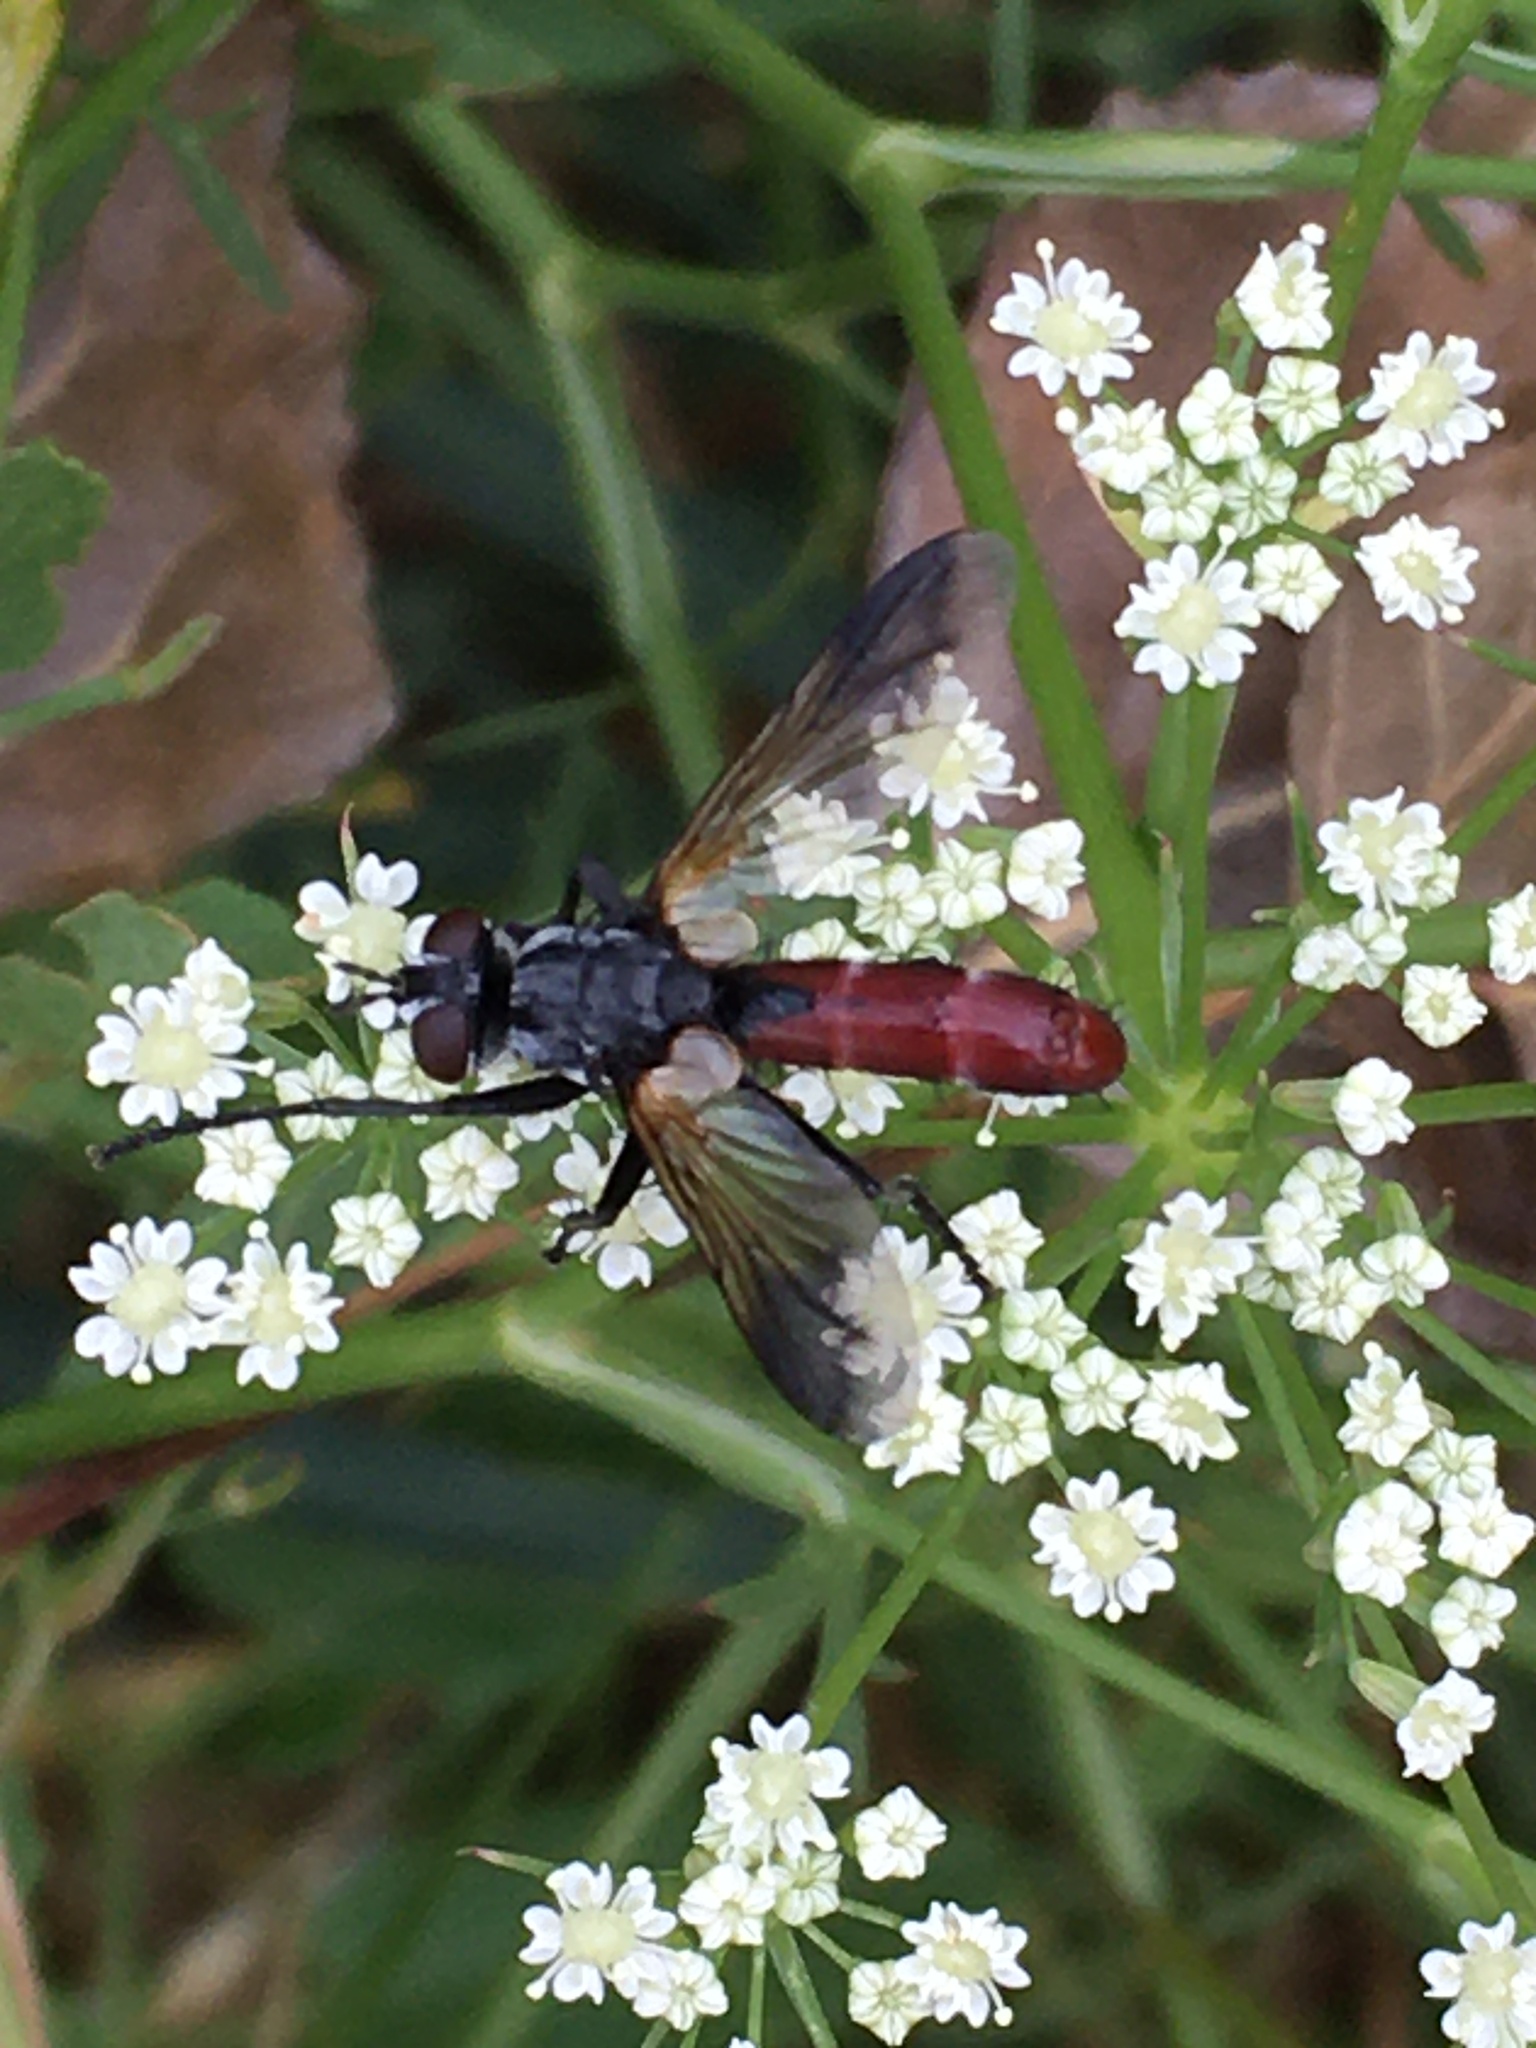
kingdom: Animalia
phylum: Arthropoda
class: Insecta
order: Diptera
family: Tachinidae
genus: Cylindromyia
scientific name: Cylindromyia bicolor
